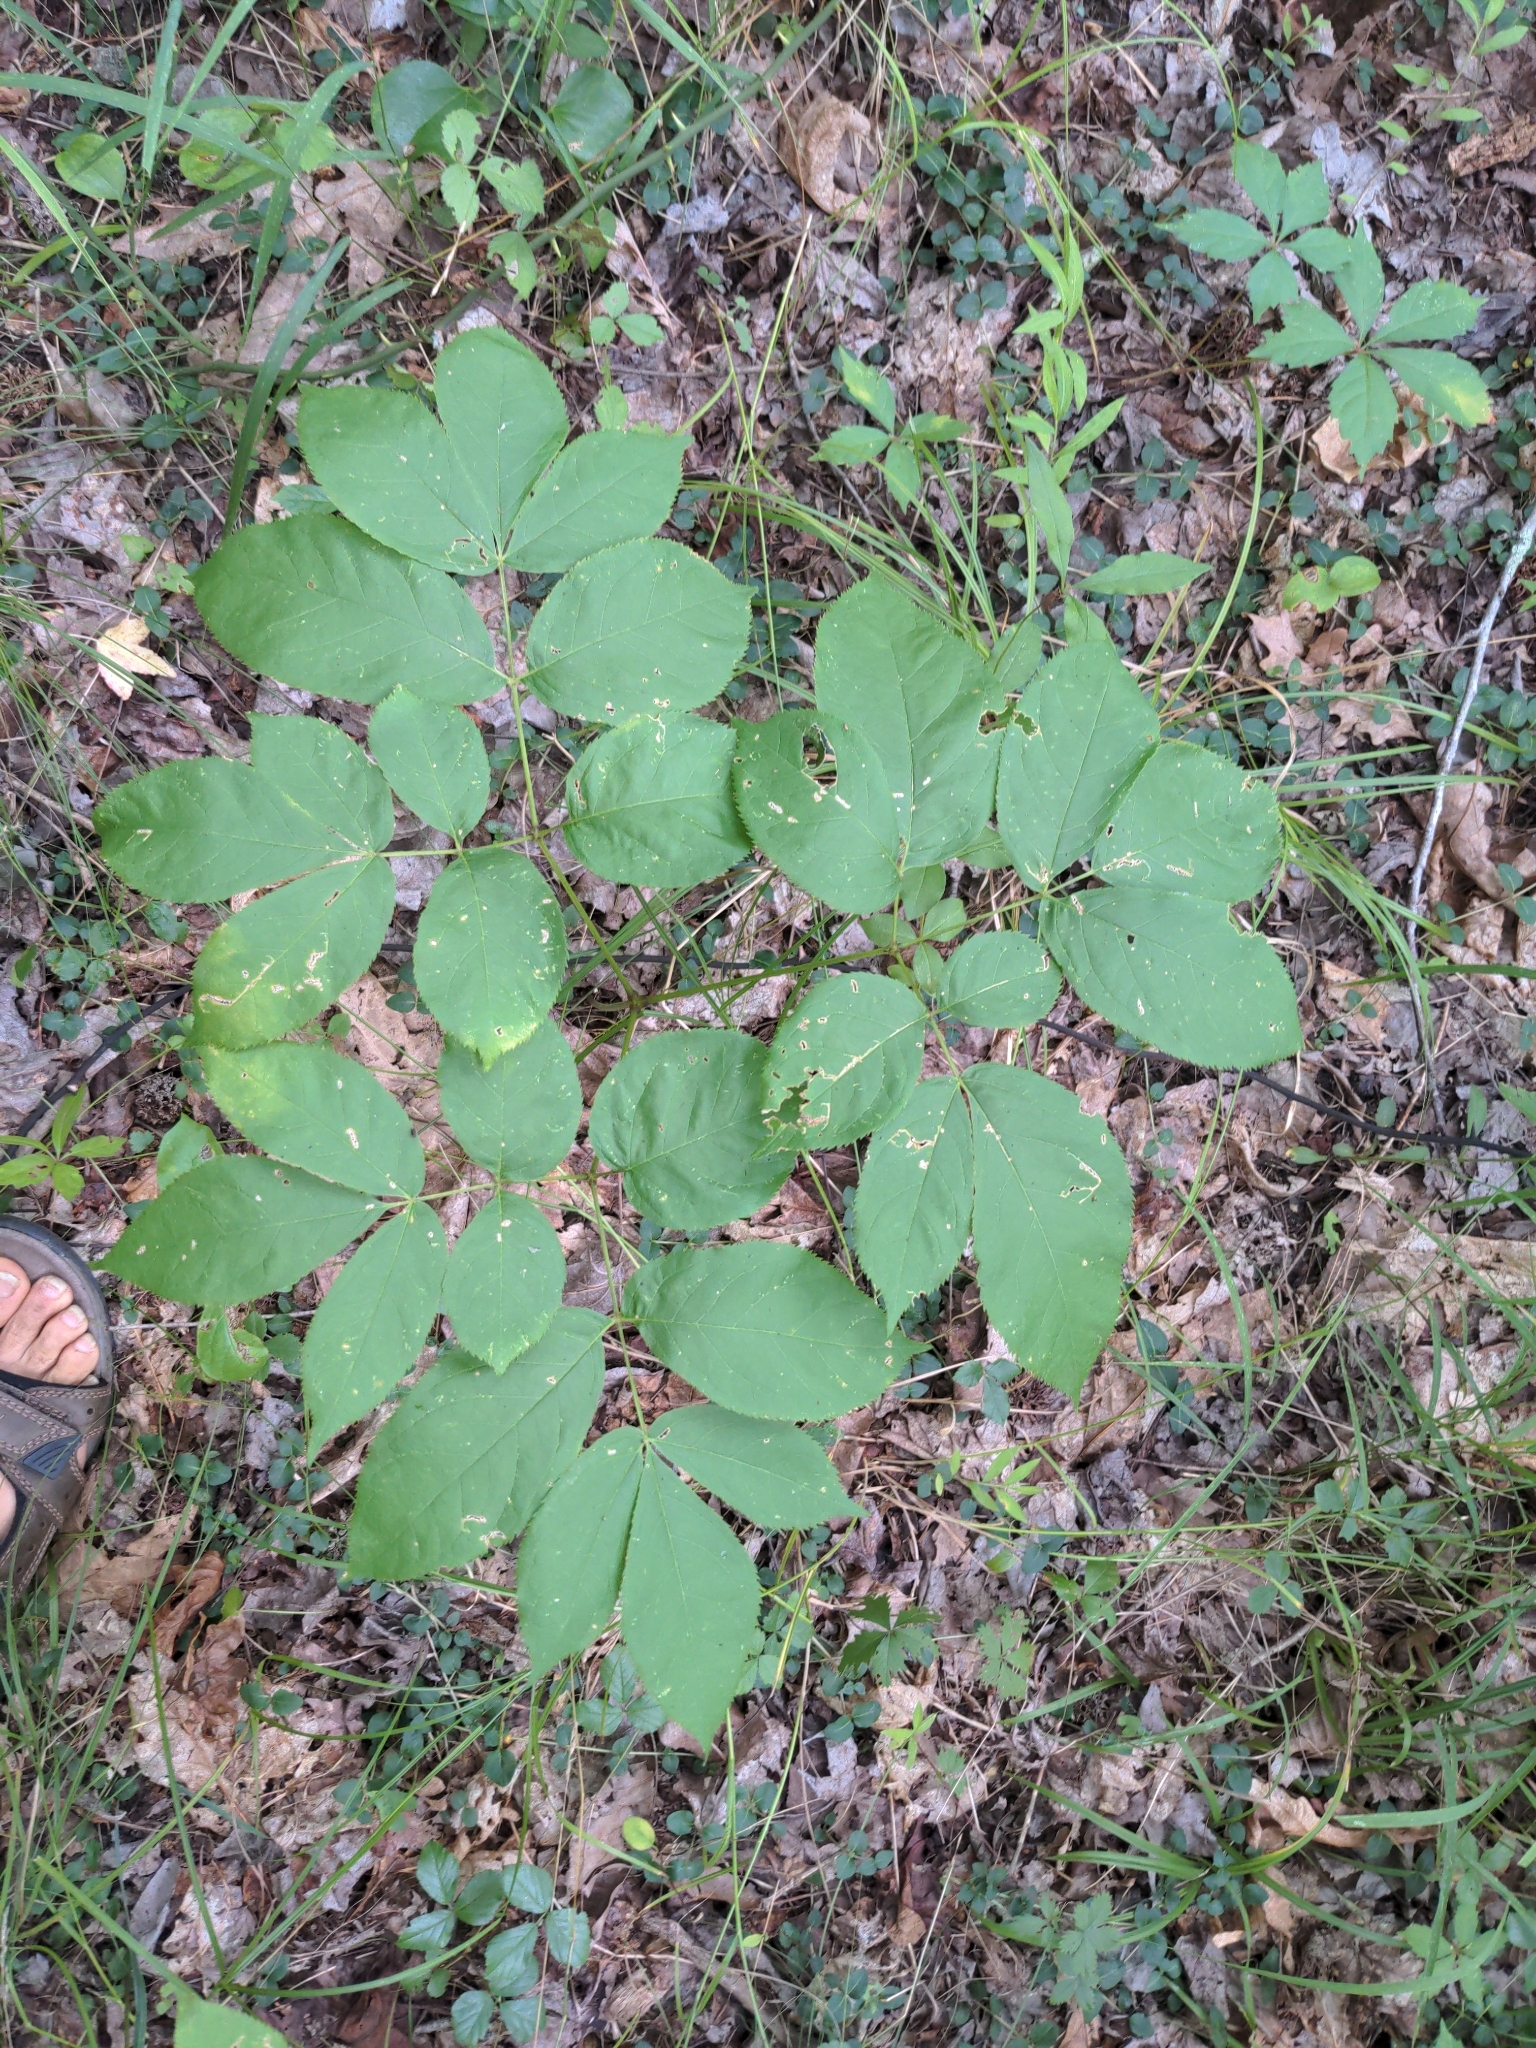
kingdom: Plantae
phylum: Tracheophyta
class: Magnoliopsida
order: Apiales
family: Araliaceae
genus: Aralia
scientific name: Aralia nudicaulis
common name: Wild sarsaparilla
